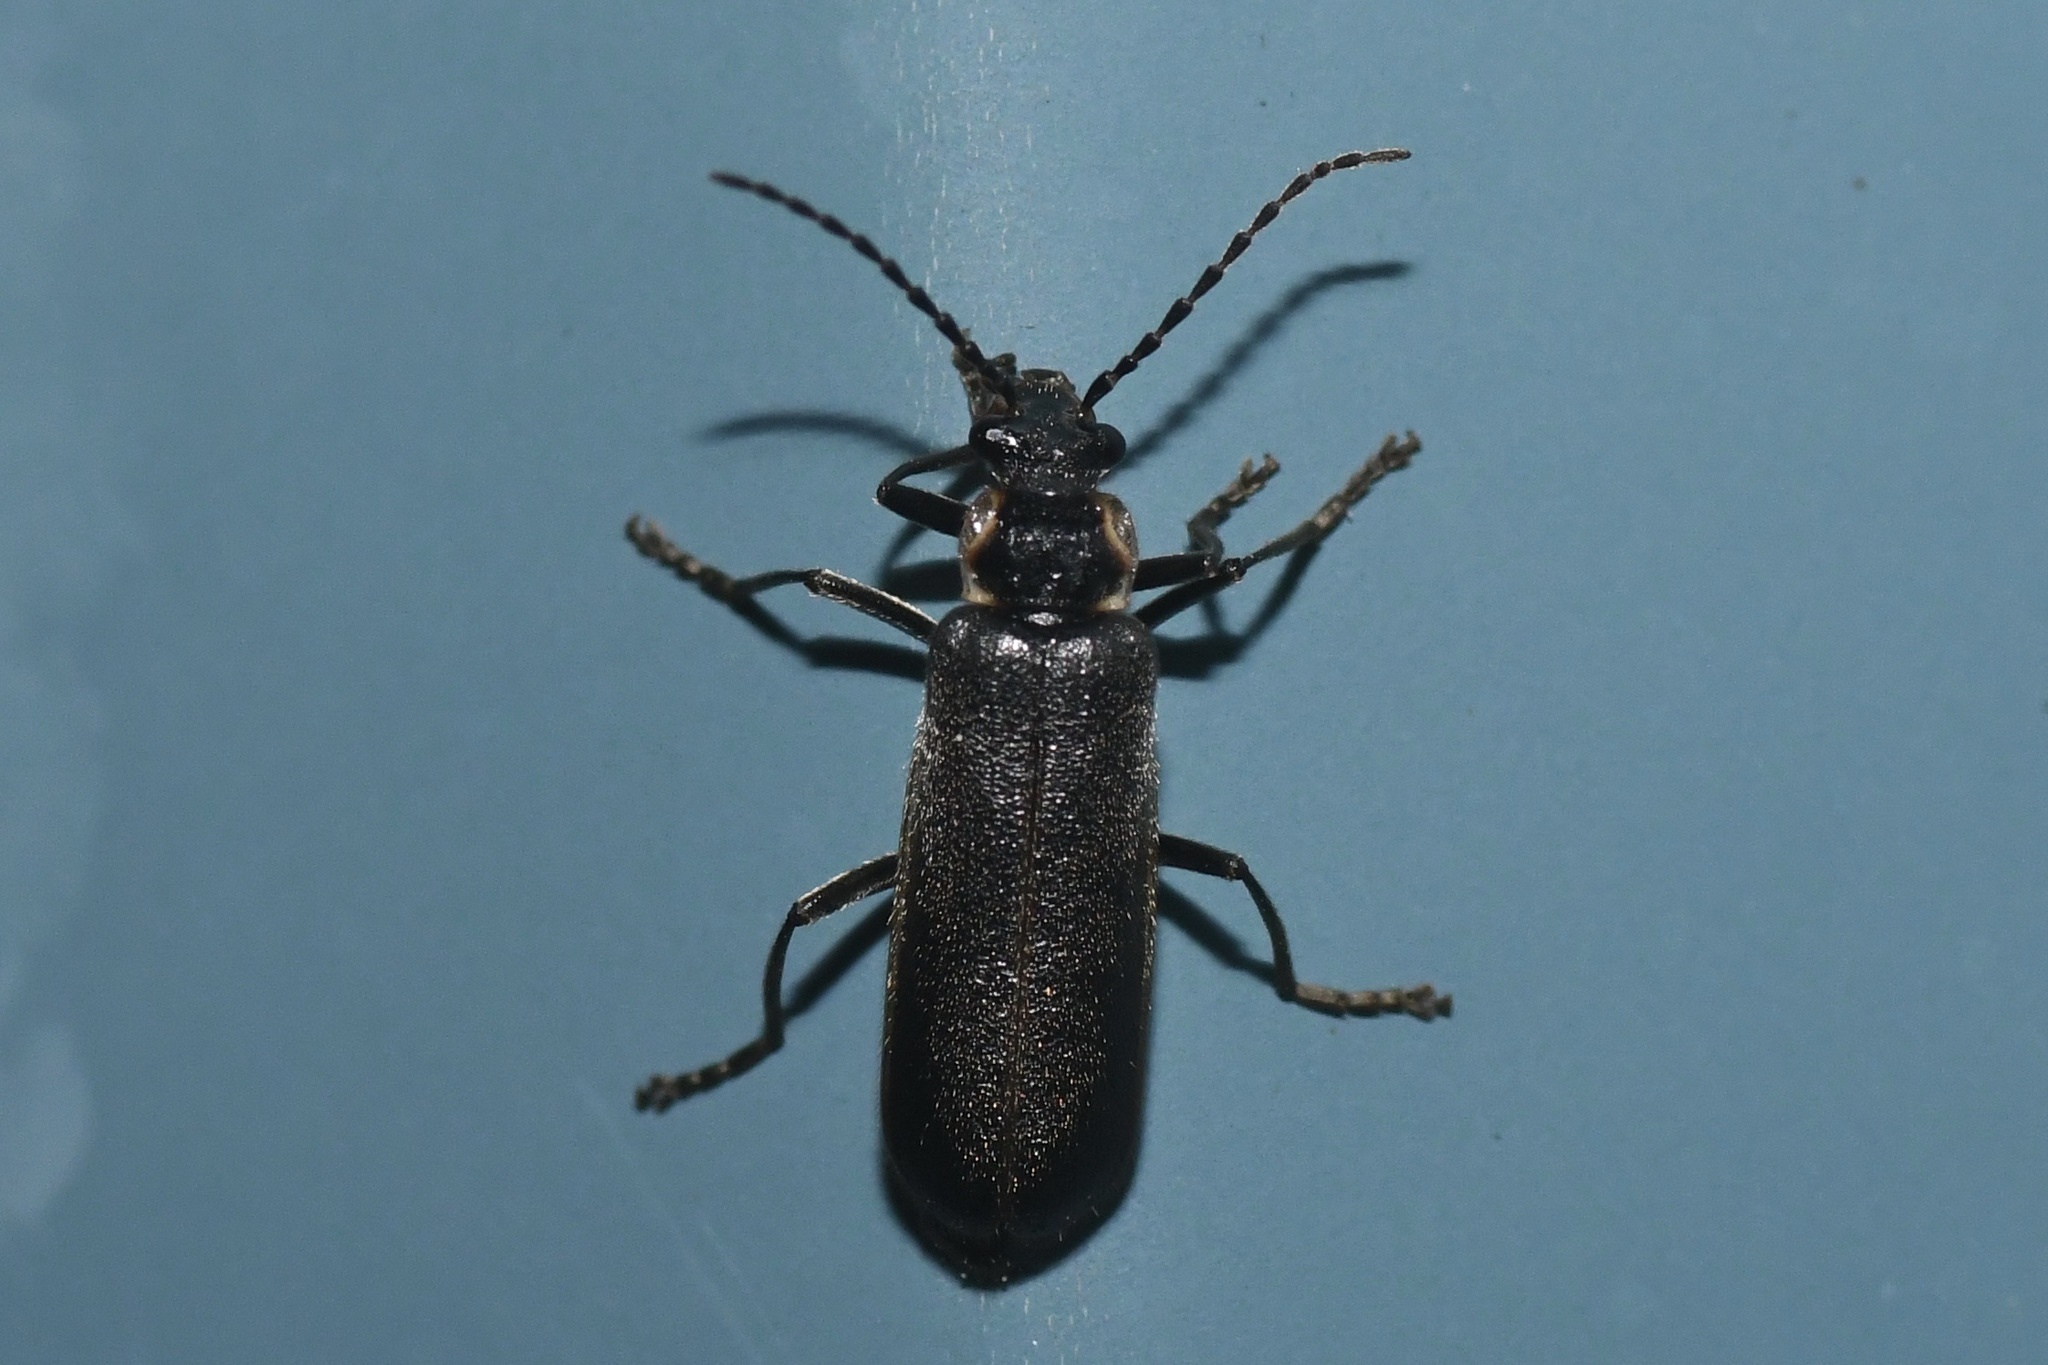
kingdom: Animalia
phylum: Arthropoda
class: Insecta
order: Coleoptera
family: Cantharidae
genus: Podabrus
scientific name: Podabrus nothoides
